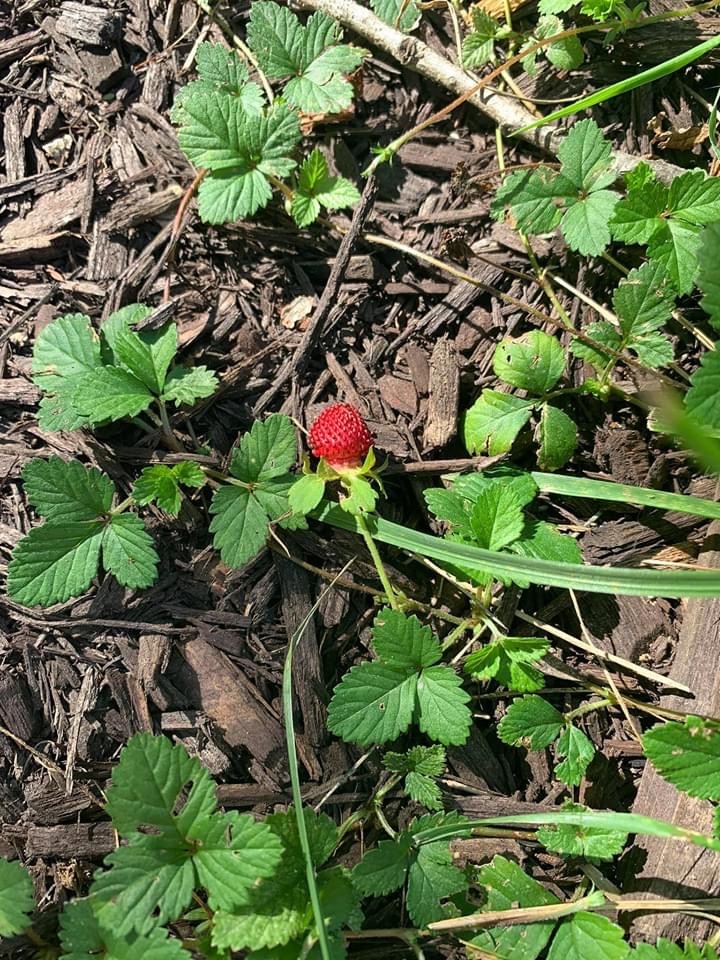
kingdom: Plantae
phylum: Tracheophyta
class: Magnoliopsida
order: Rosales
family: Rosaceae
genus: Potentilla
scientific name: Potentilla indica
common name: Yellow-flowered strawberry
